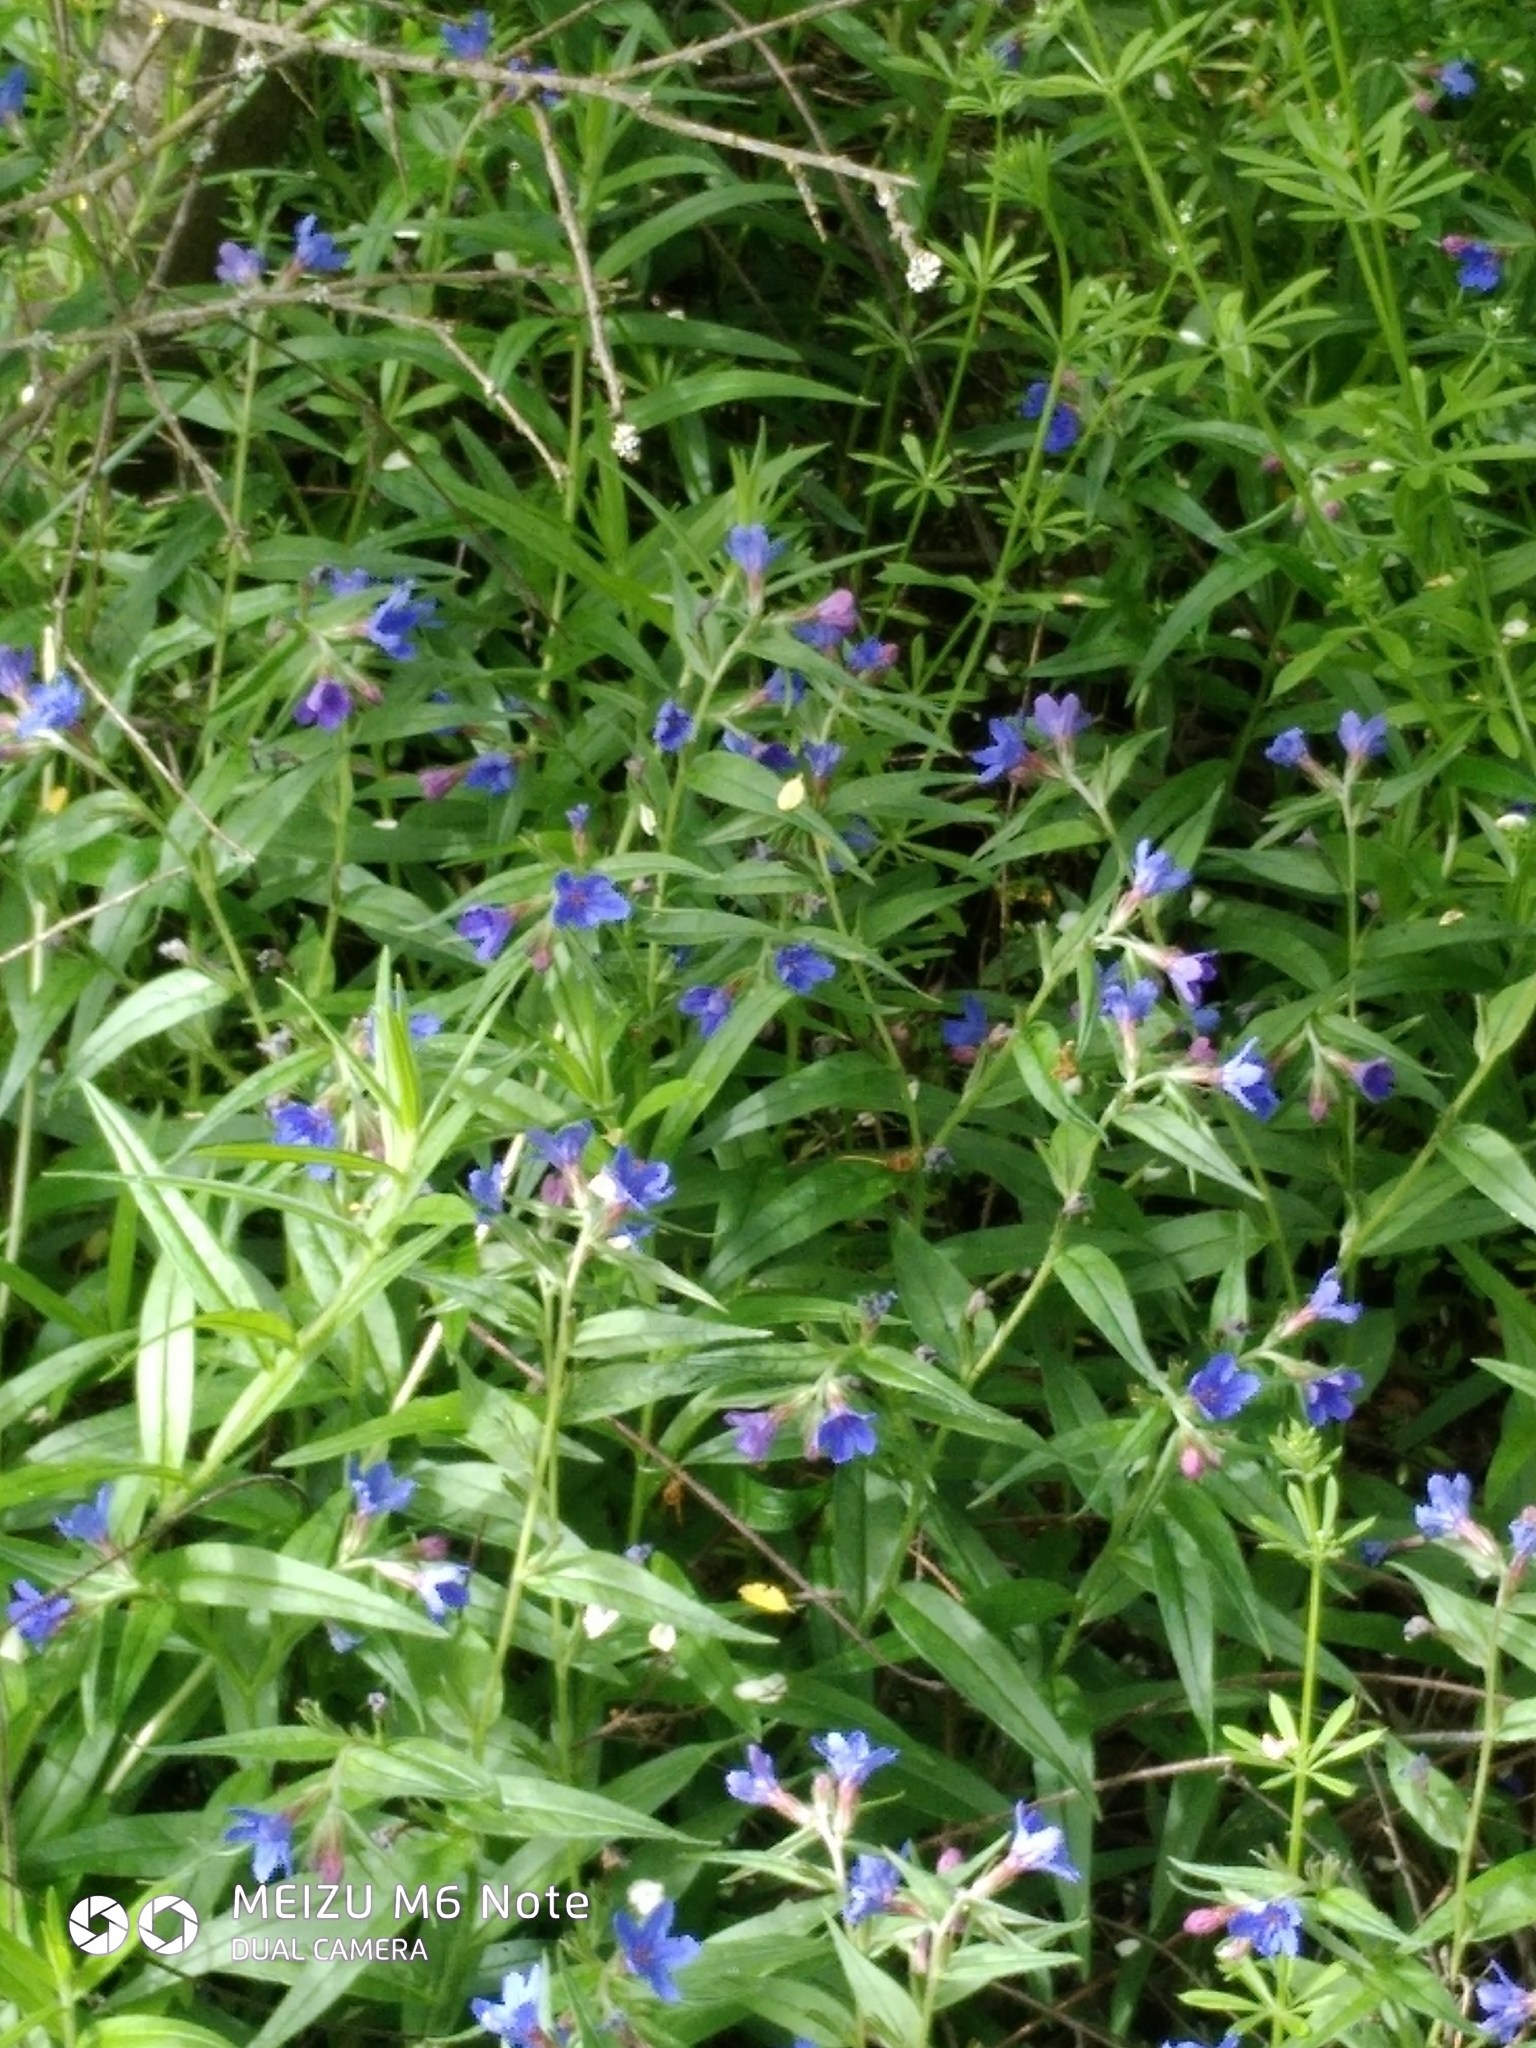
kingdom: Plantae
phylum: Tracheophyta
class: Magnoliopsida
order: Boraginales
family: Boraginaceae
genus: Aegonychon
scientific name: Aegonychon purpurocaeruleum
